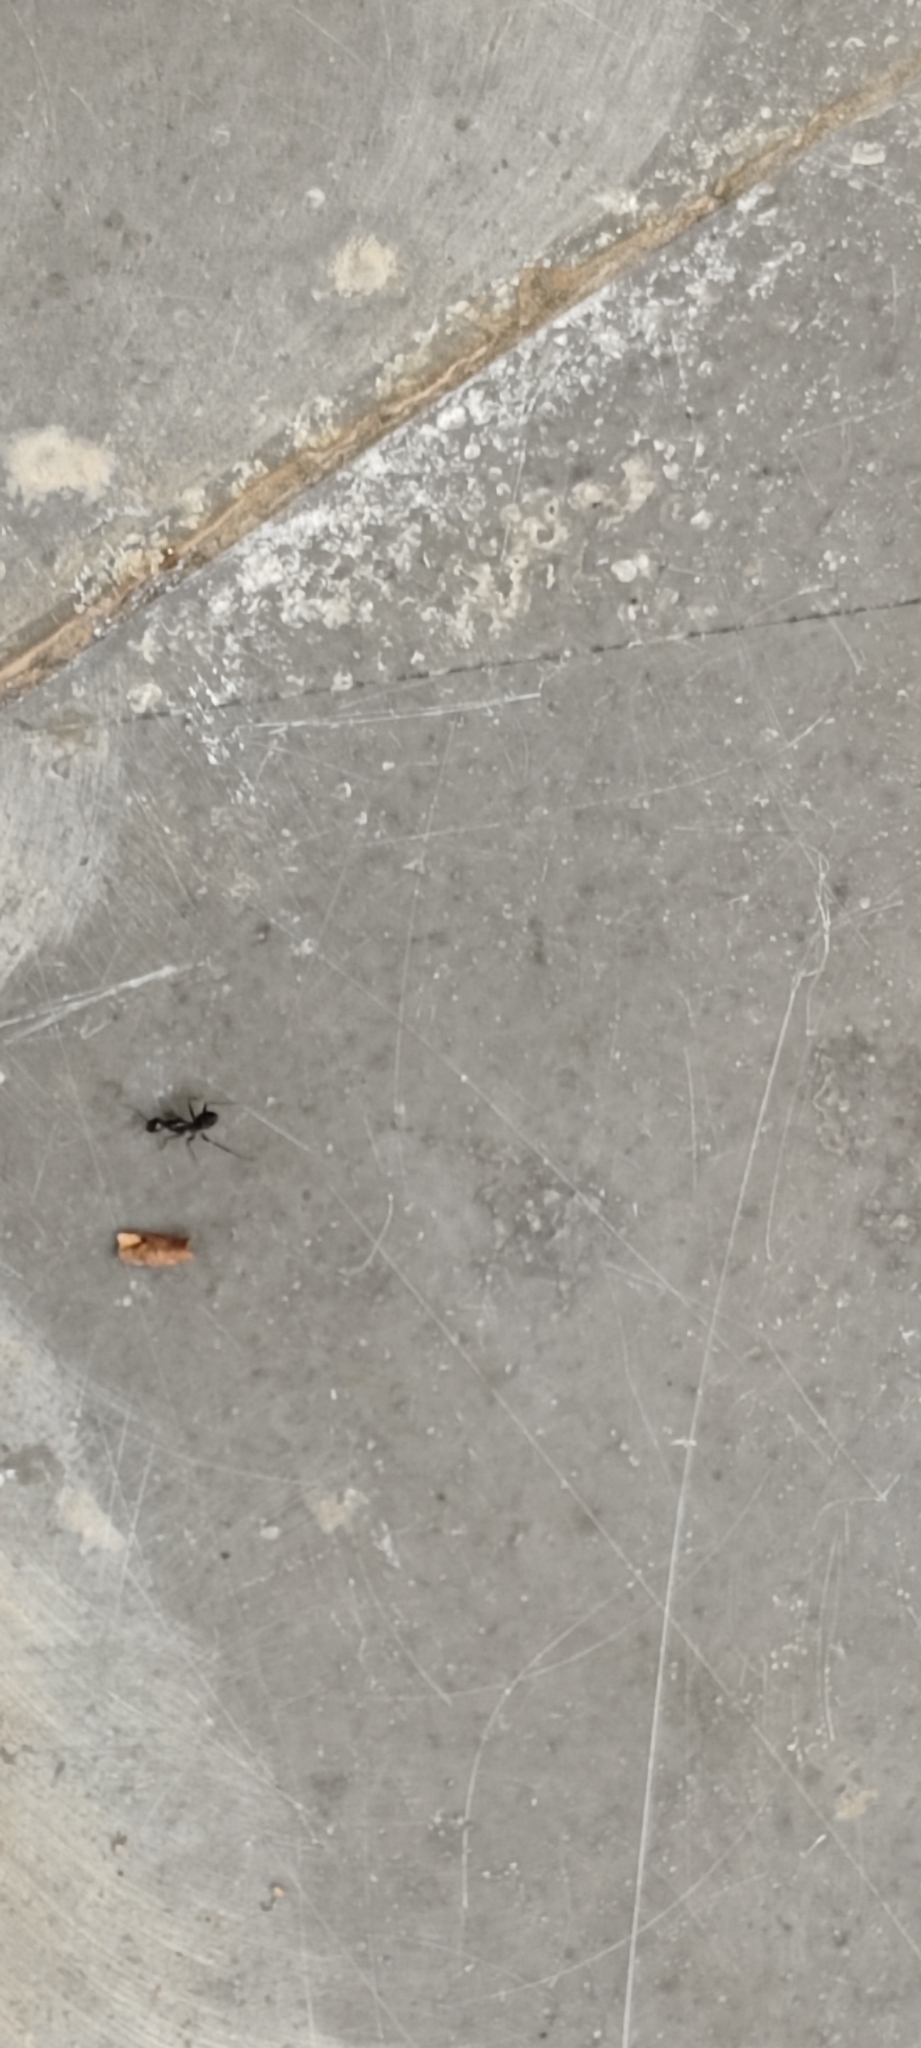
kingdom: Animalia
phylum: Arthropoda
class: Insecta
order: Hymenoptera
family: Formicidae
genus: Camponotus
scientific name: Camponotus compressus
